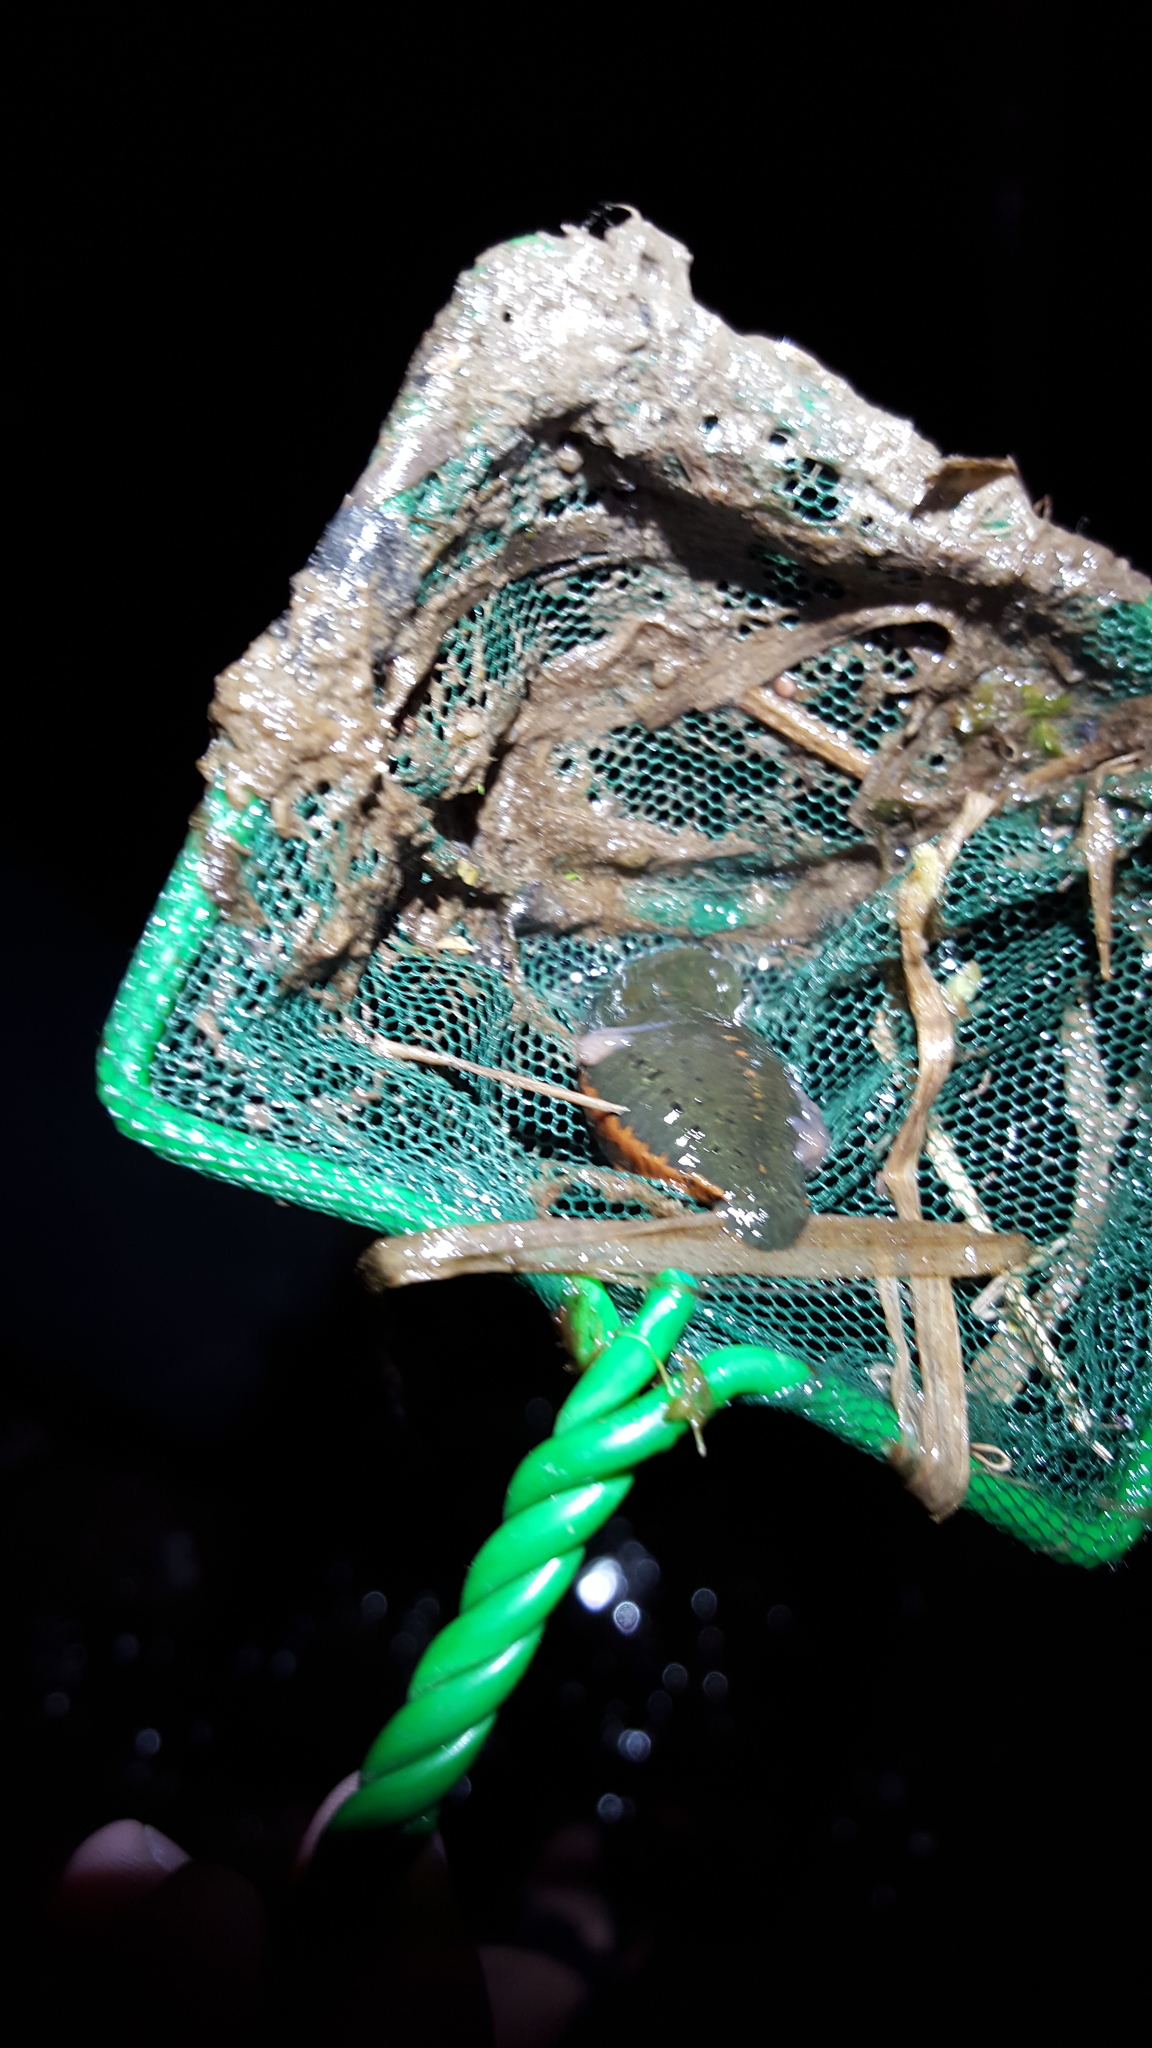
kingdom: Animalia
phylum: Annelida
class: Clitellata
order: Arhynchobdellida
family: Hirudinidae
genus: Macrobdella
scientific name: Macrobdella decora
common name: North american leech
